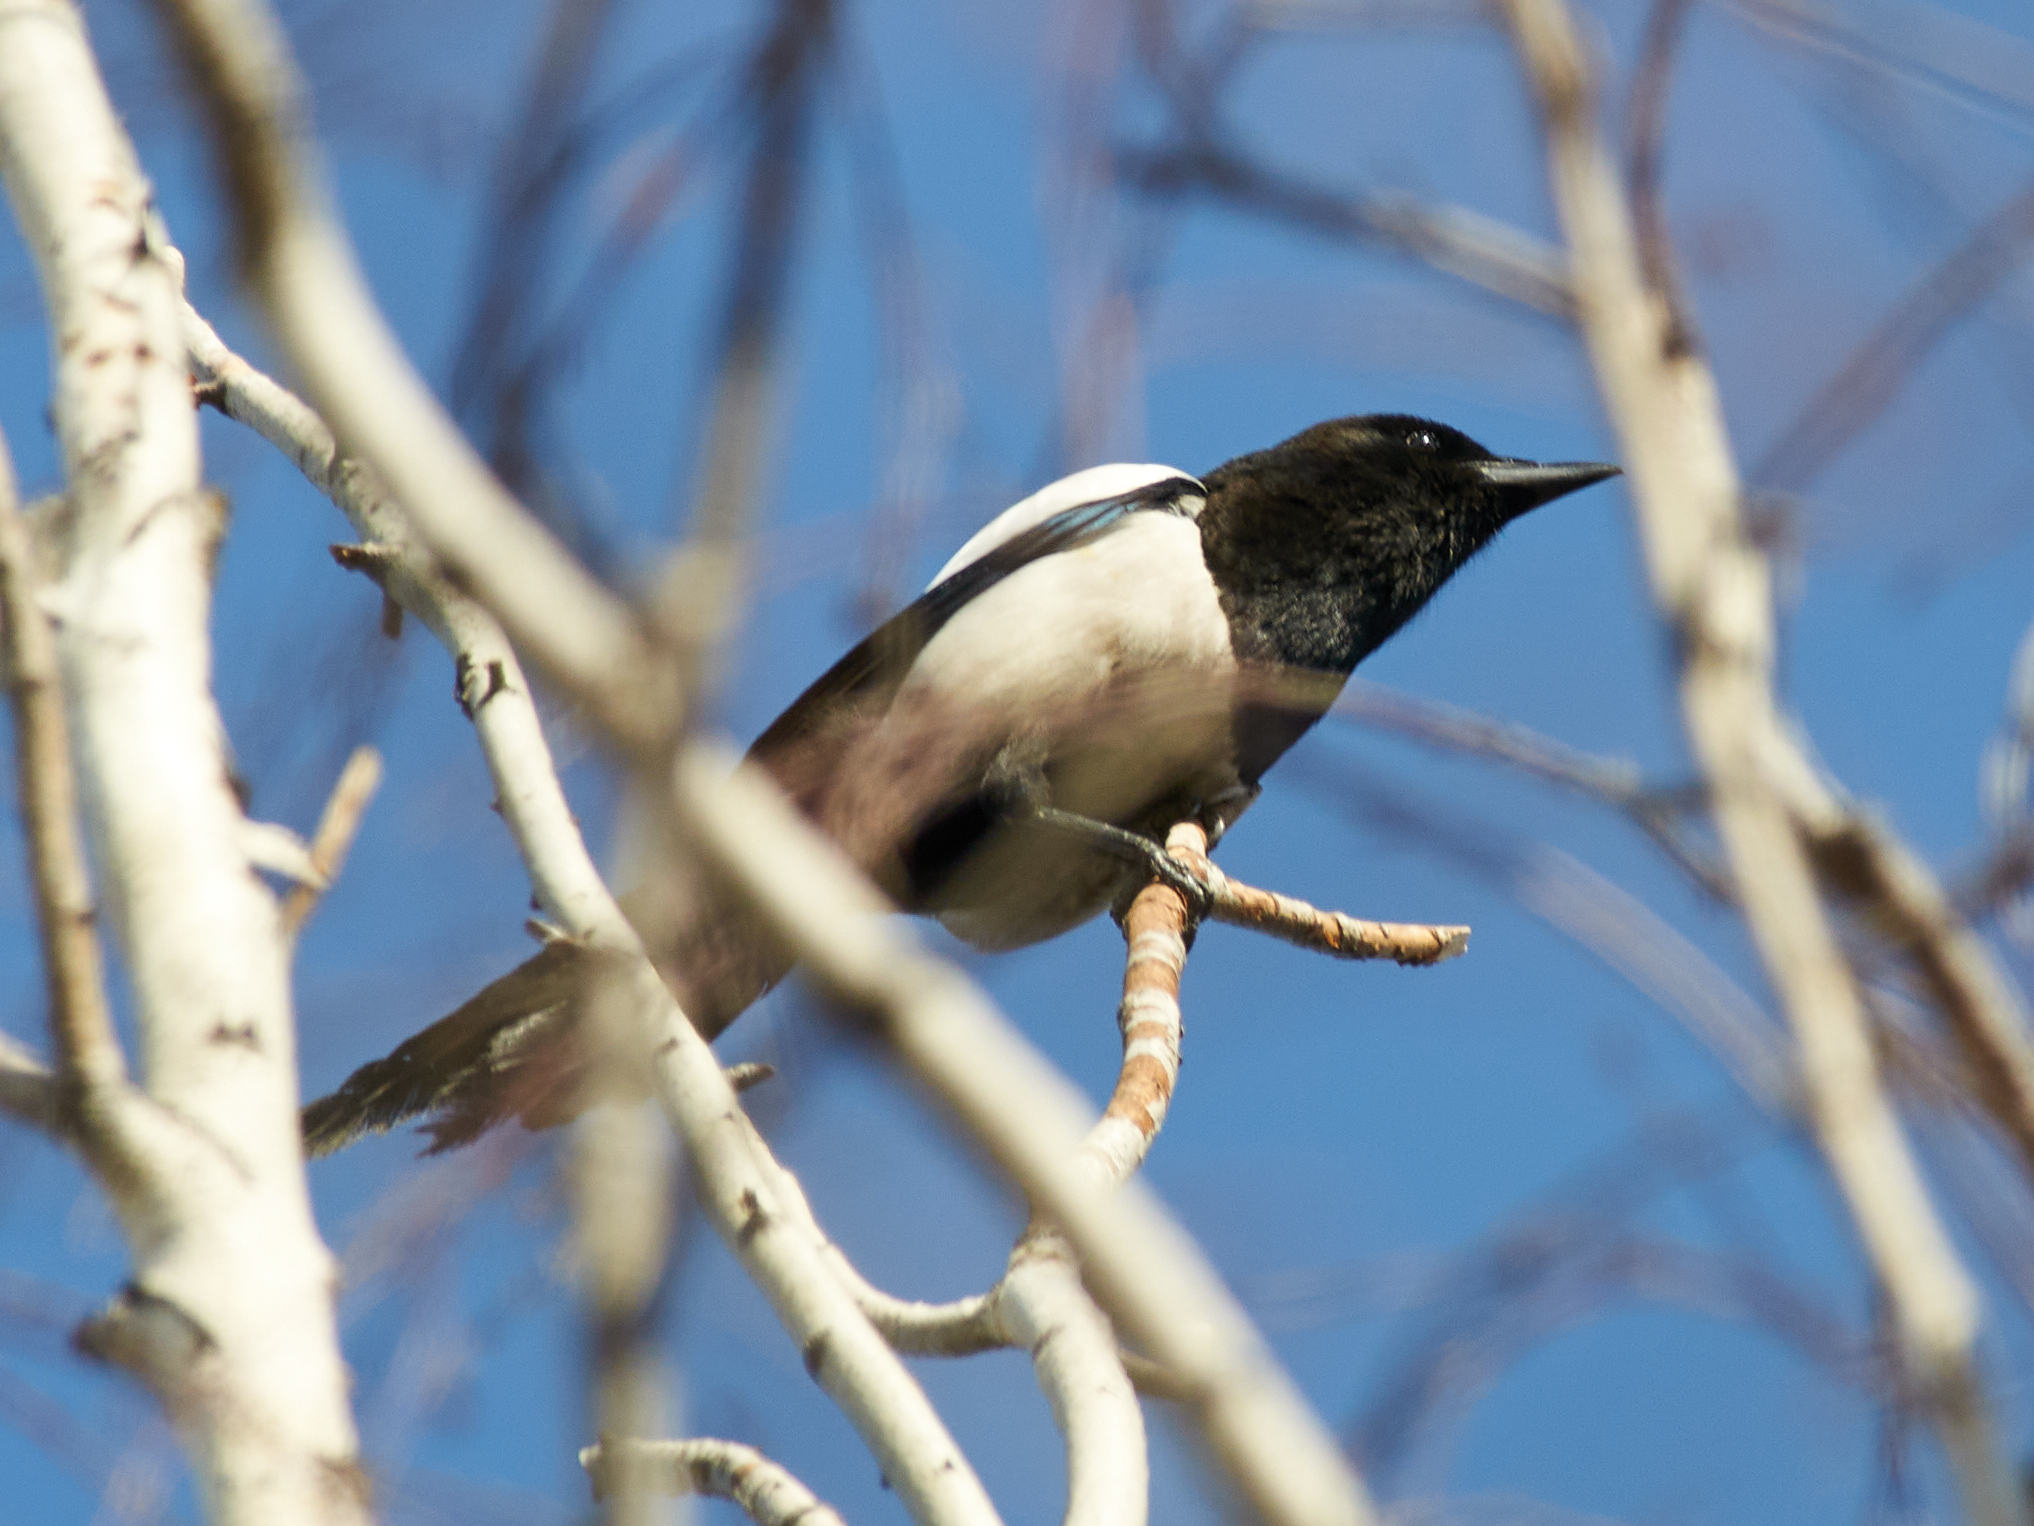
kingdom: Animalia
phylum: Chordata
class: Aves
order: Passeriformes
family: Corvidae
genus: Pica
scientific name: Pica pica
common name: Eurasian magpie
